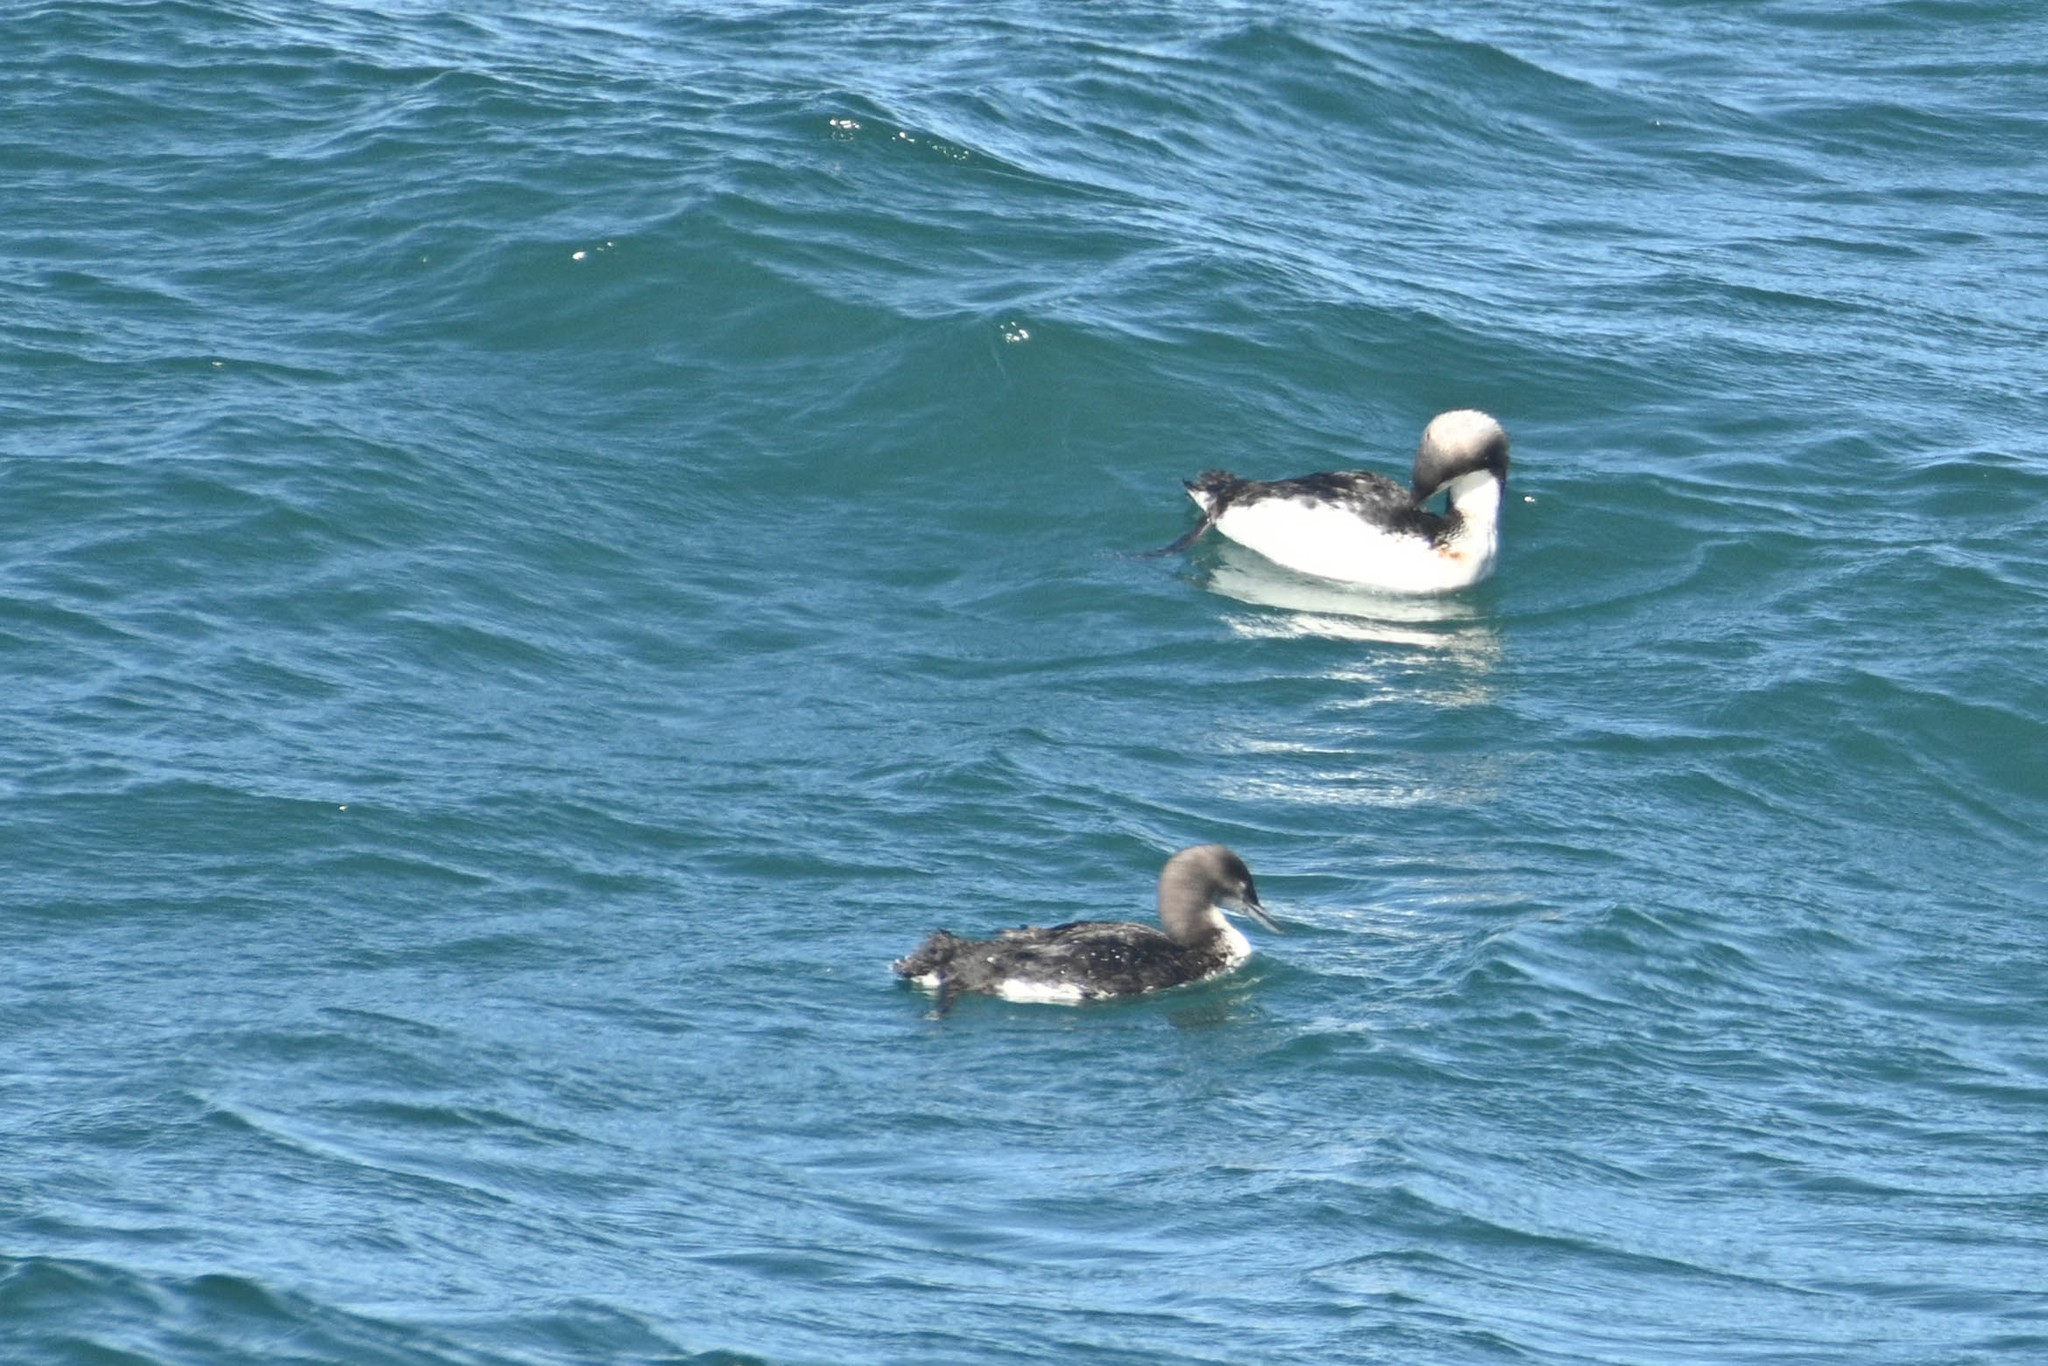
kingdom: Animalia
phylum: Chordata
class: Aves
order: Gaviiformes
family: Gaviidae
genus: Gavia
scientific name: Gavia pacifica
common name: Pacific loon
